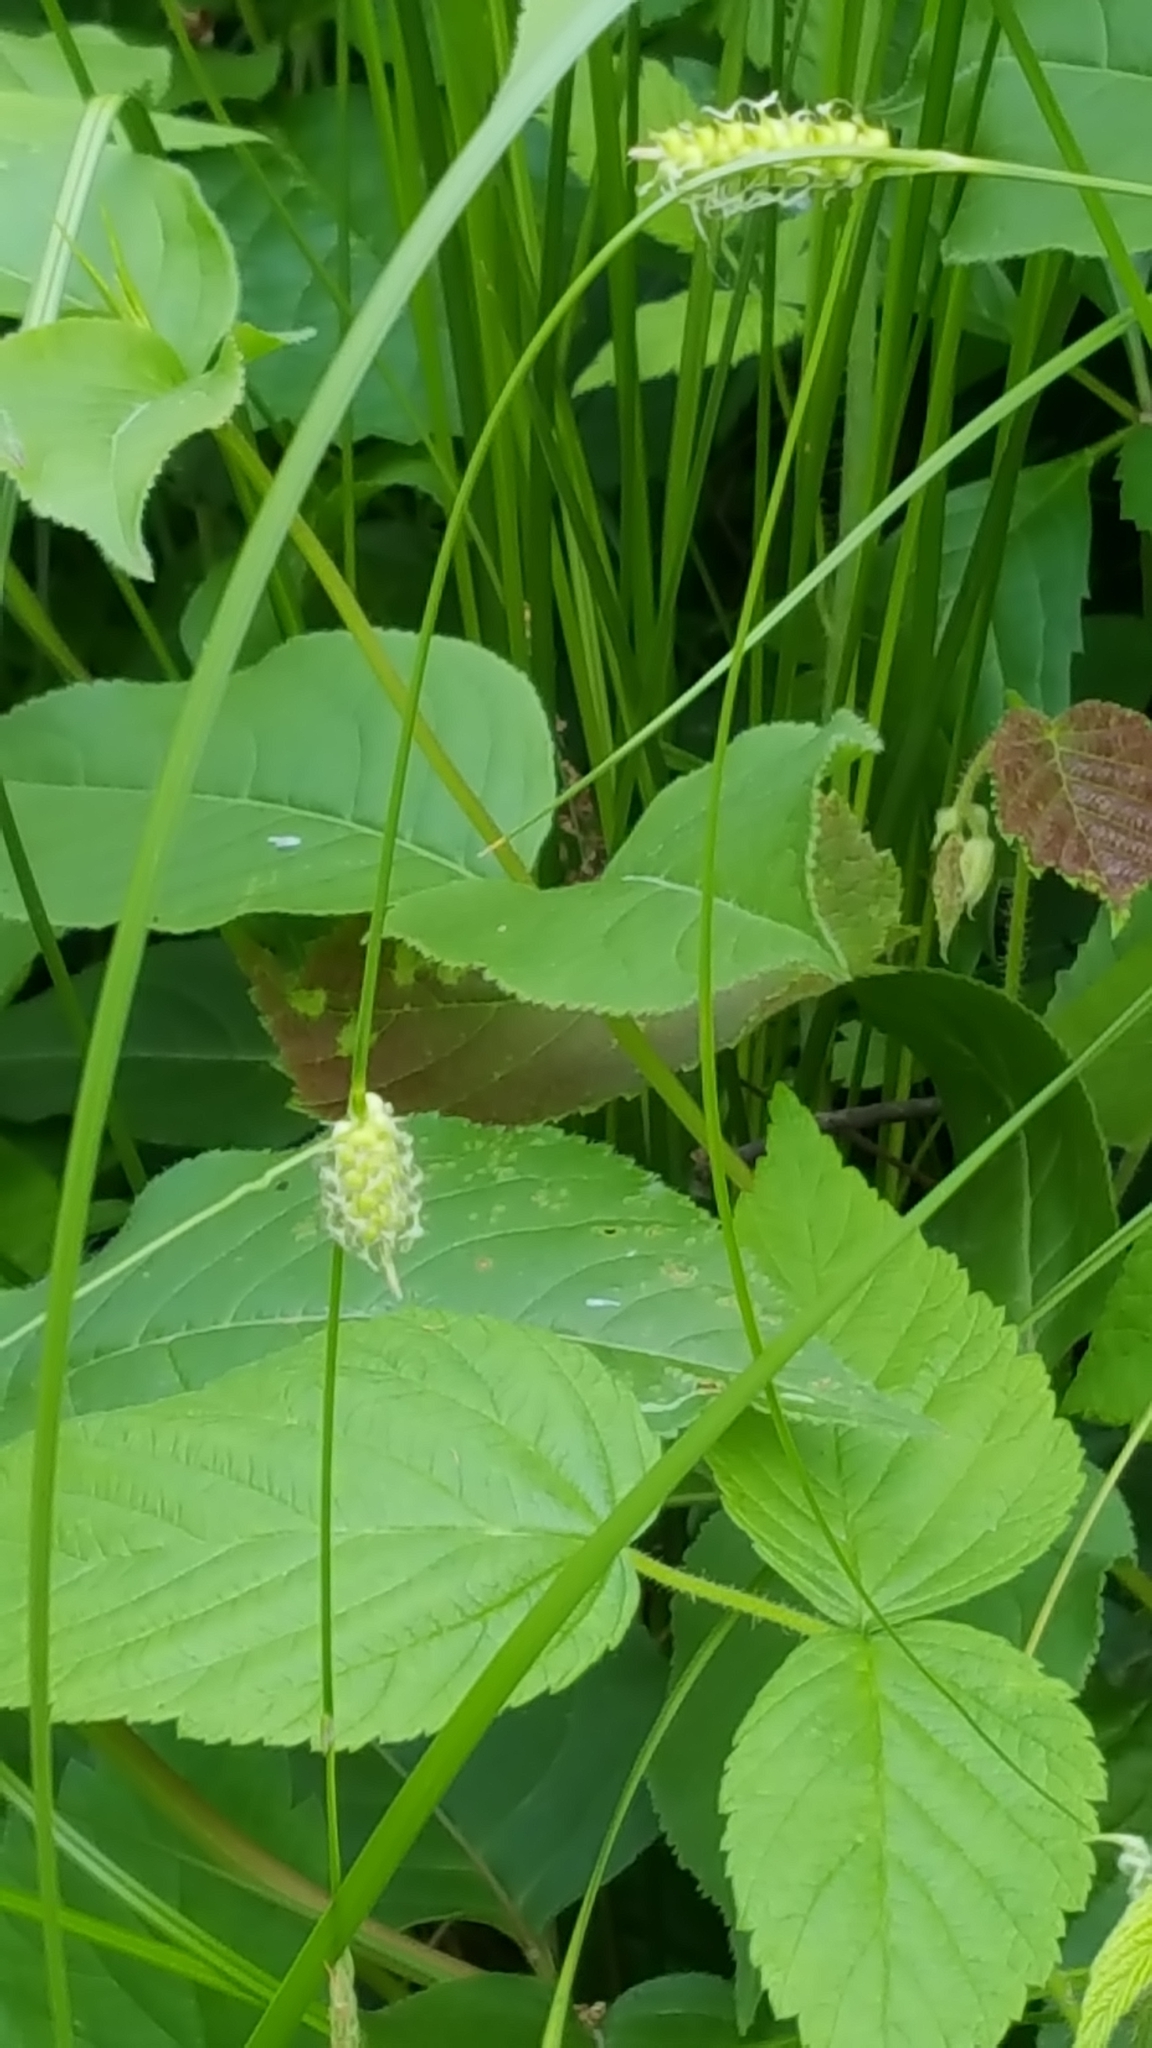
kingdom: Plantae
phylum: Tracheophyta
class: Liliopsida
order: Poales
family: Cyperaceae
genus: Carex
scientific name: Carex hystericina
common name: Bottlebrush sedge
